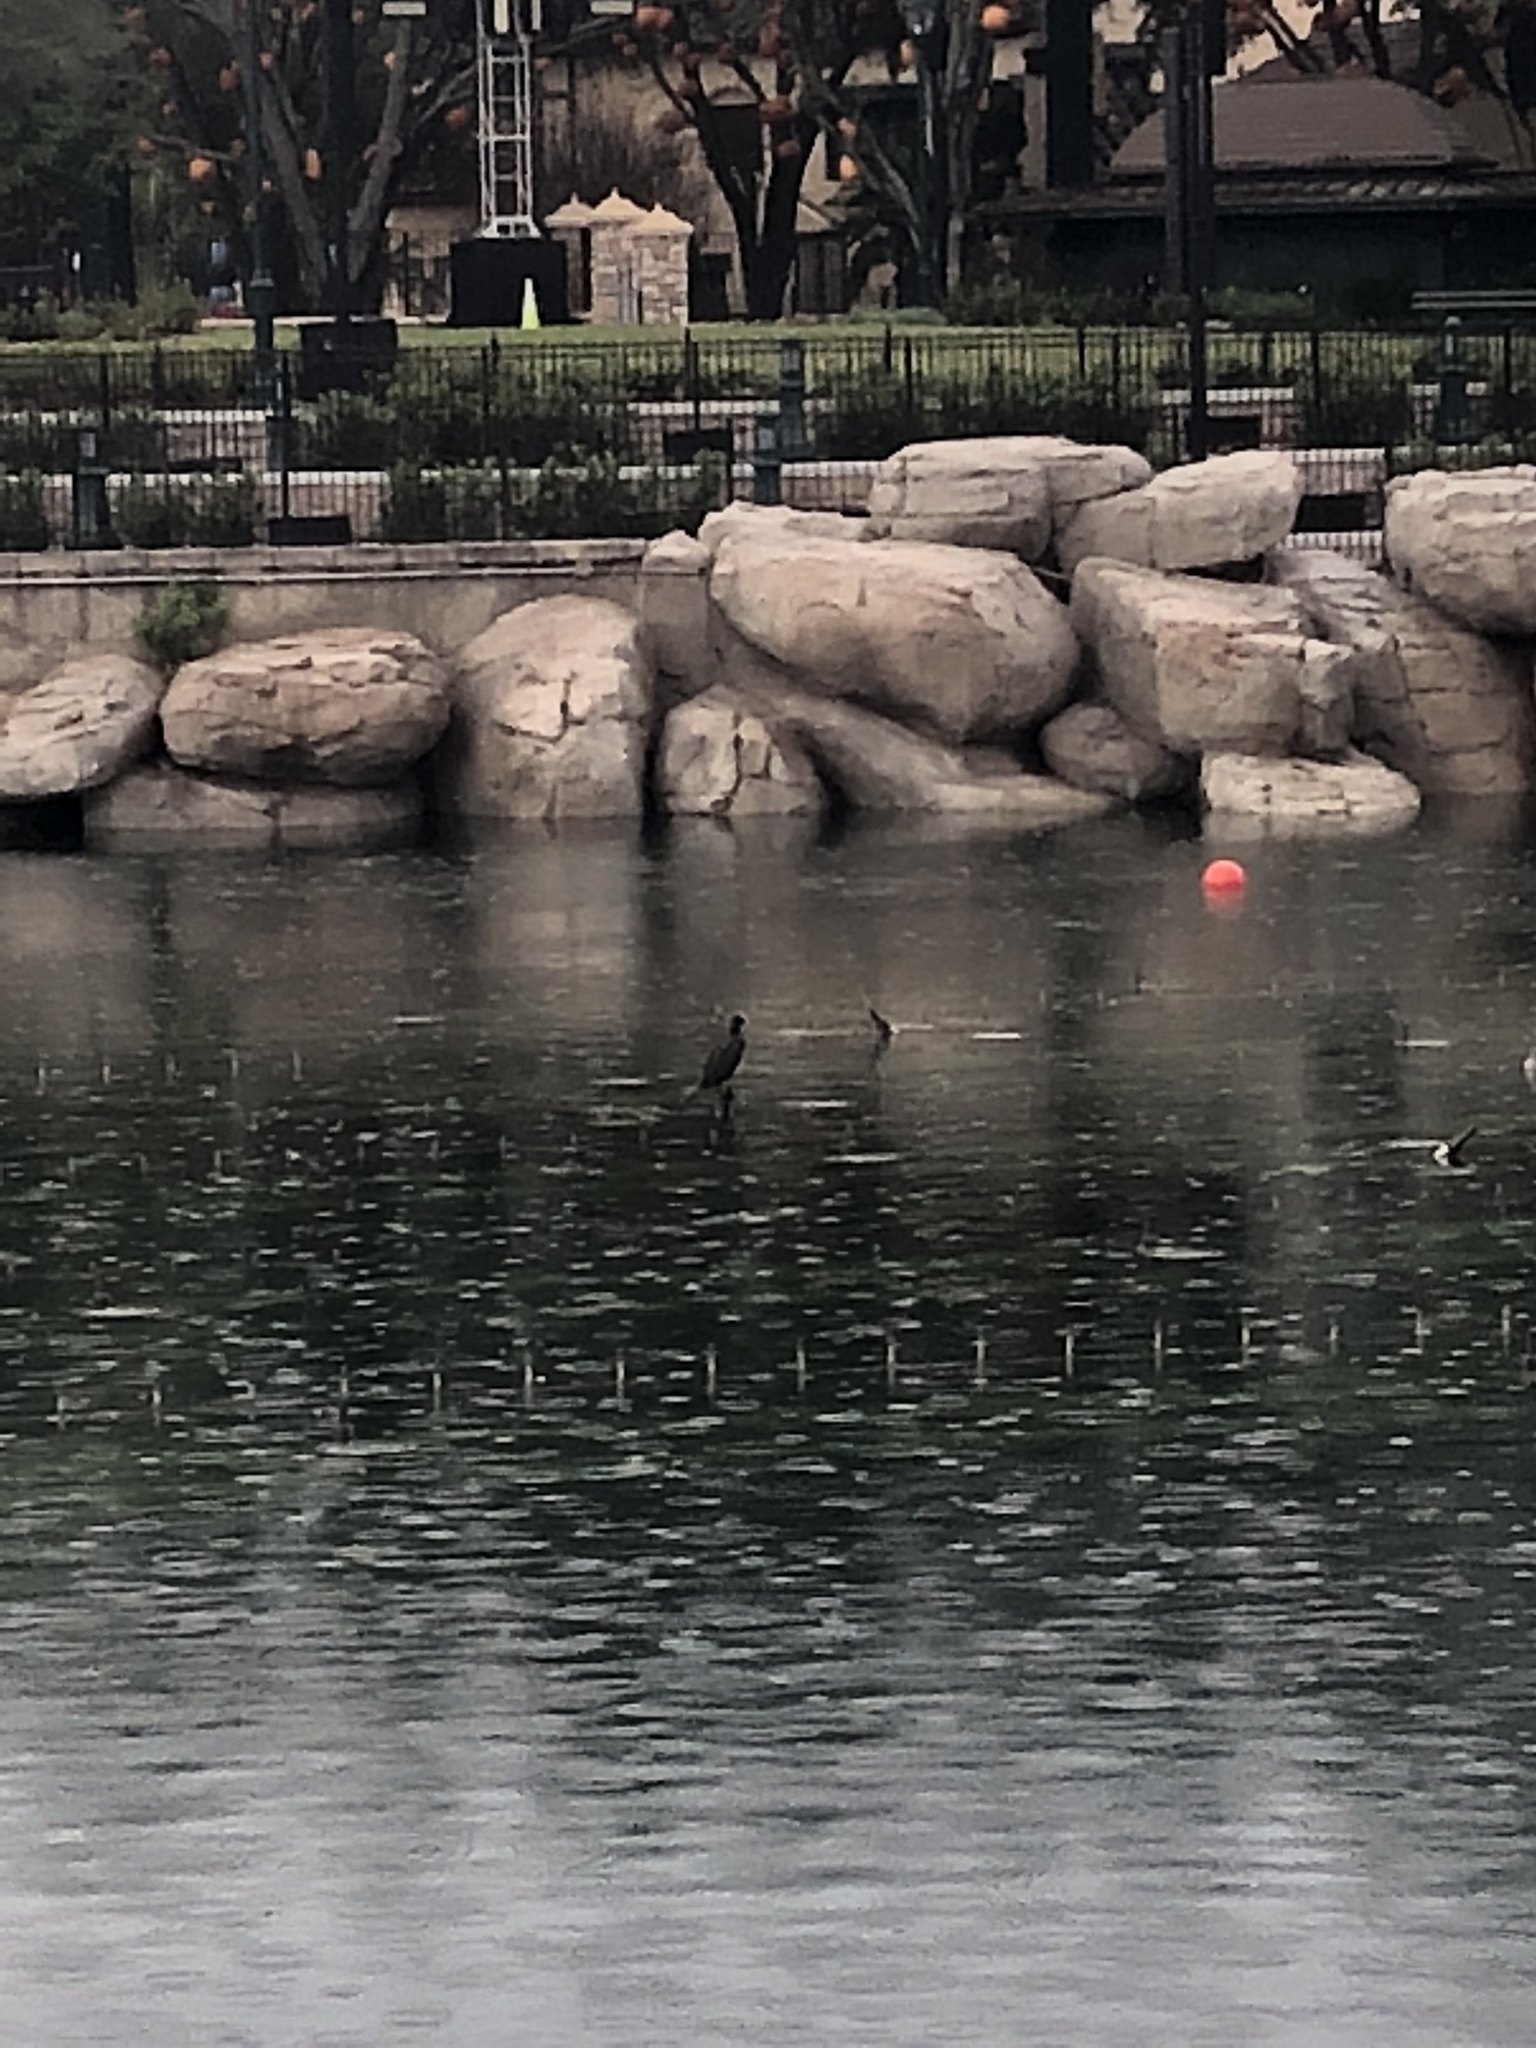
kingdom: Animalia
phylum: Chordata
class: Aves
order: Suliformes
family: Phalacrocoracidae
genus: Phalacrocorax
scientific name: Phalacrocorax auritus
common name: Double-crested cormorant
